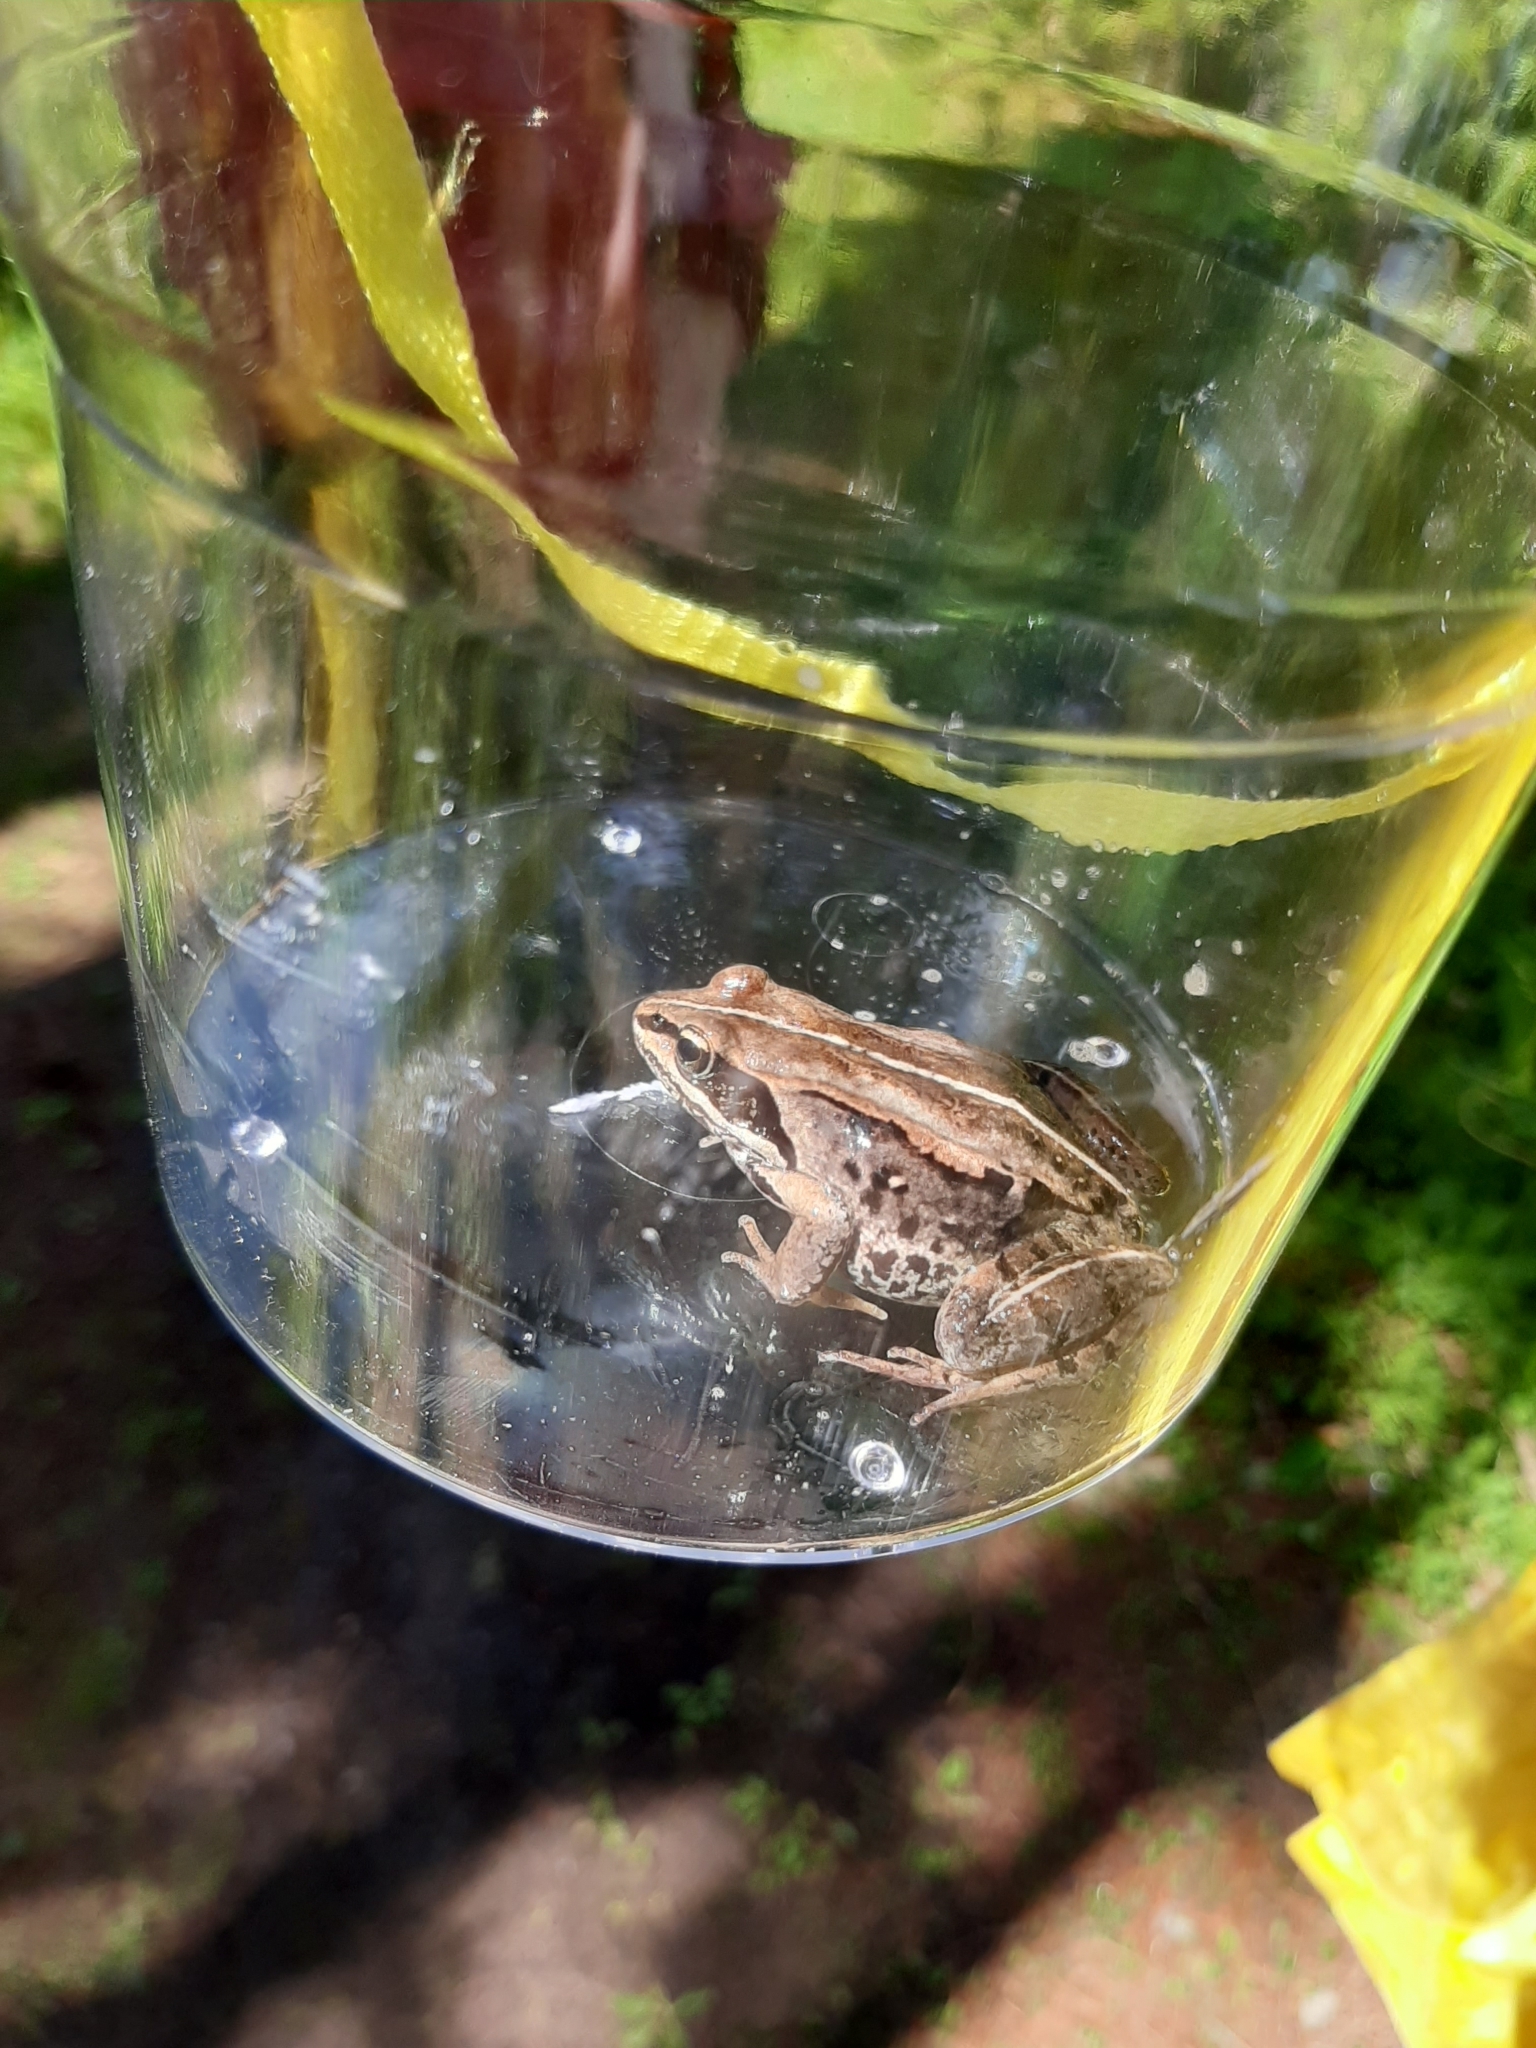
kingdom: Animalia
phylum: Chordata
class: Amphibia
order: Anura
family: Ranidae
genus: Lithobates
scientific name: Lithobates sylvaticus
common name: Wood frog
